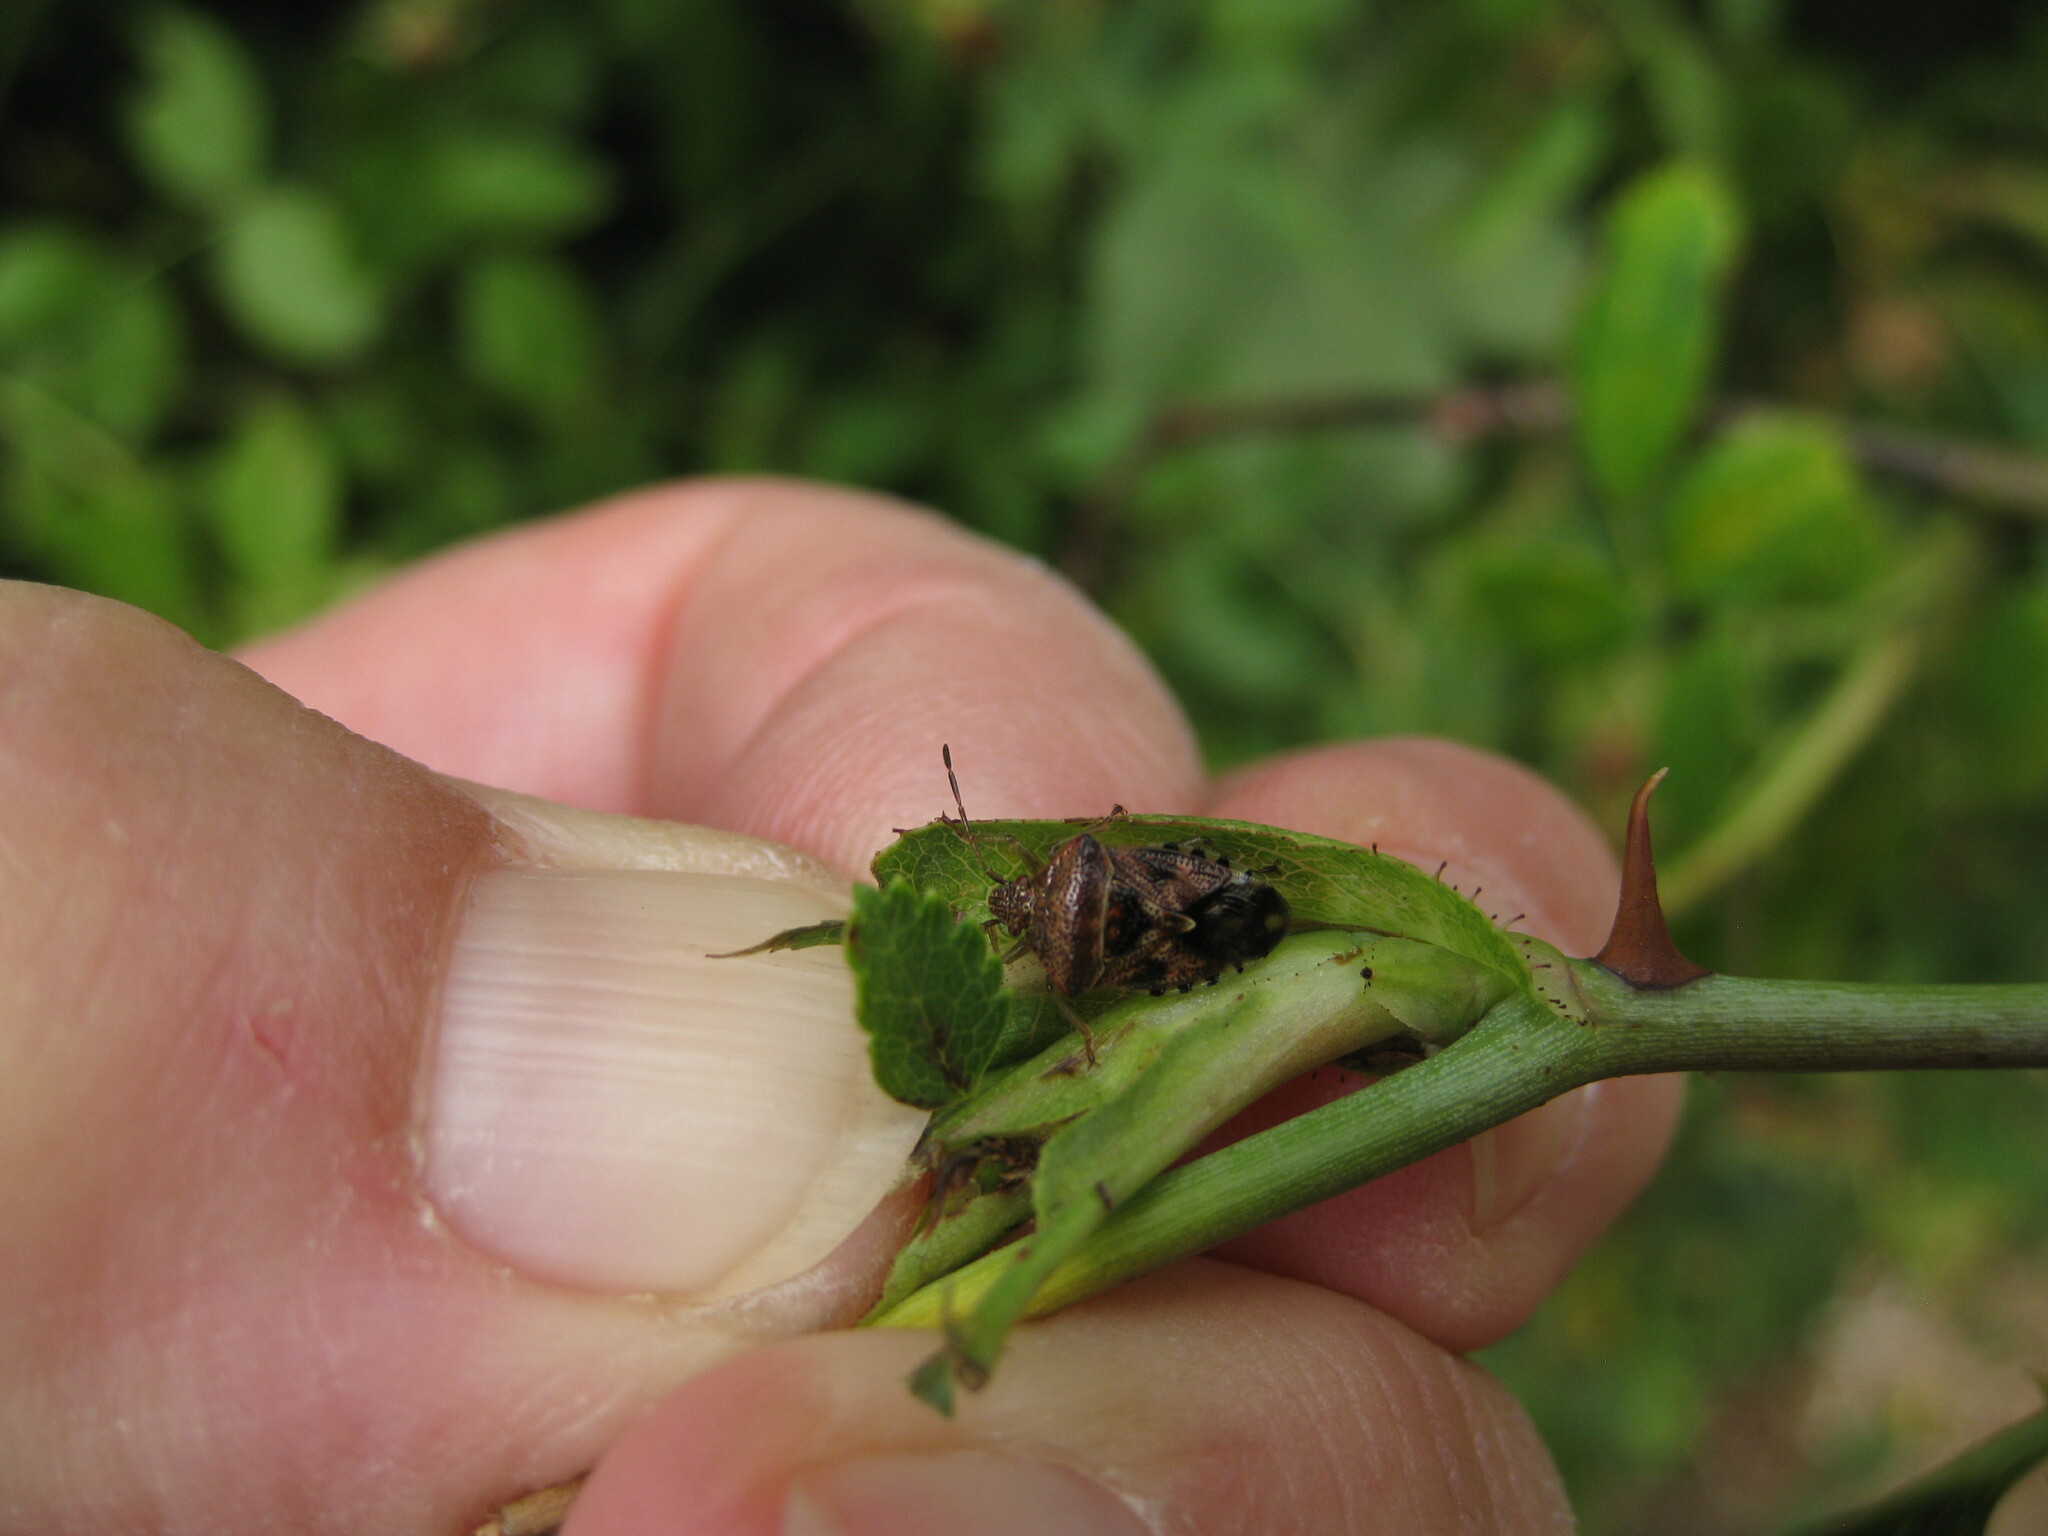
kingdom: Animalia
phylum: Arthropoda
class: Insecta
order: Hemiptera
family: Acanthosomatidae
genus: Elasmucha
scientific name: Elasmucha grisea
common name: Parent bug
